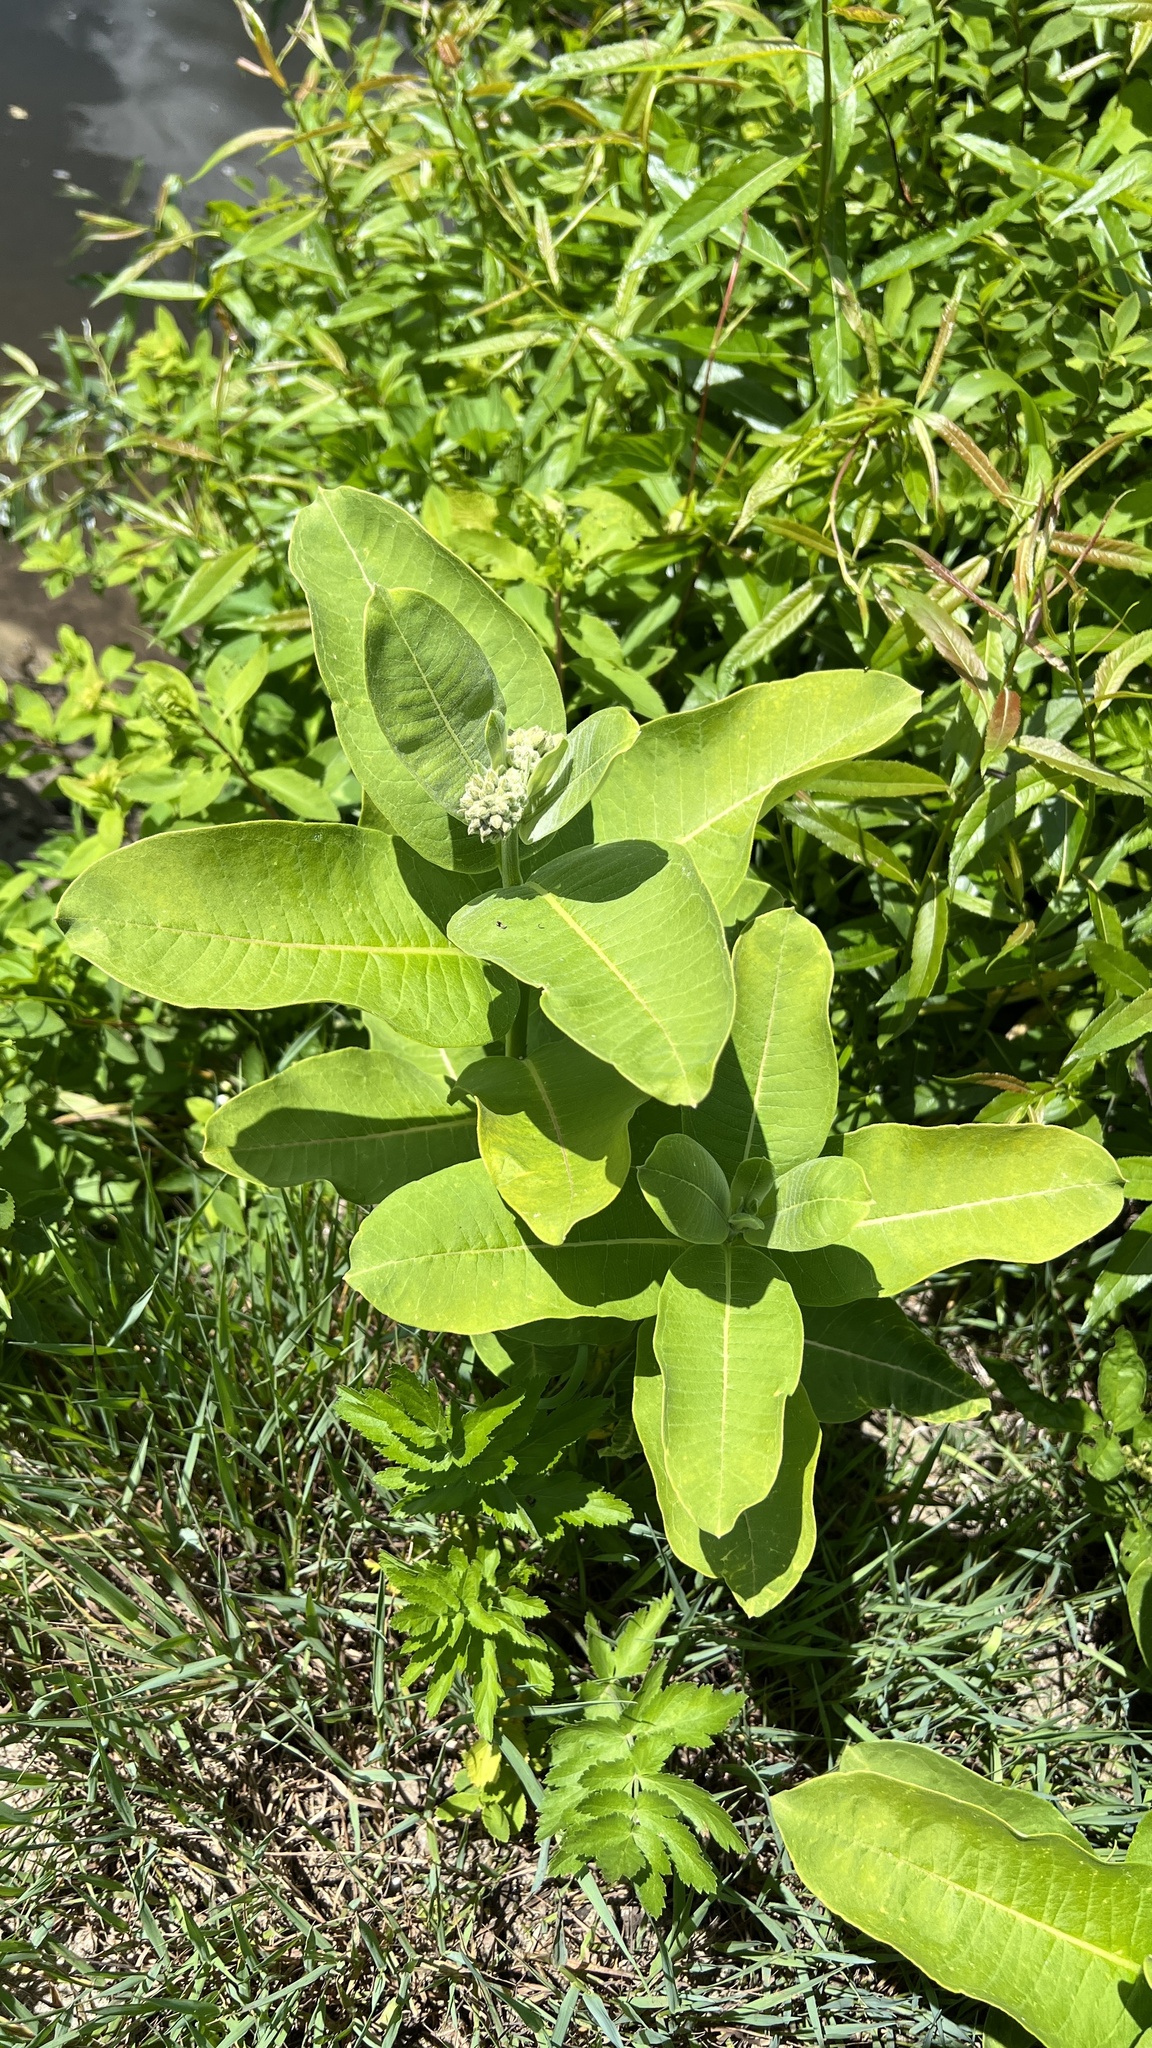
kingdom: Plantae
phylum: Tracheophyta
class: Magnoliopsida
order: Gentianales
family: Apocynaceae
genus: Asclepias
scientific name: Asclepias syriaca
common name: Common milkweed
